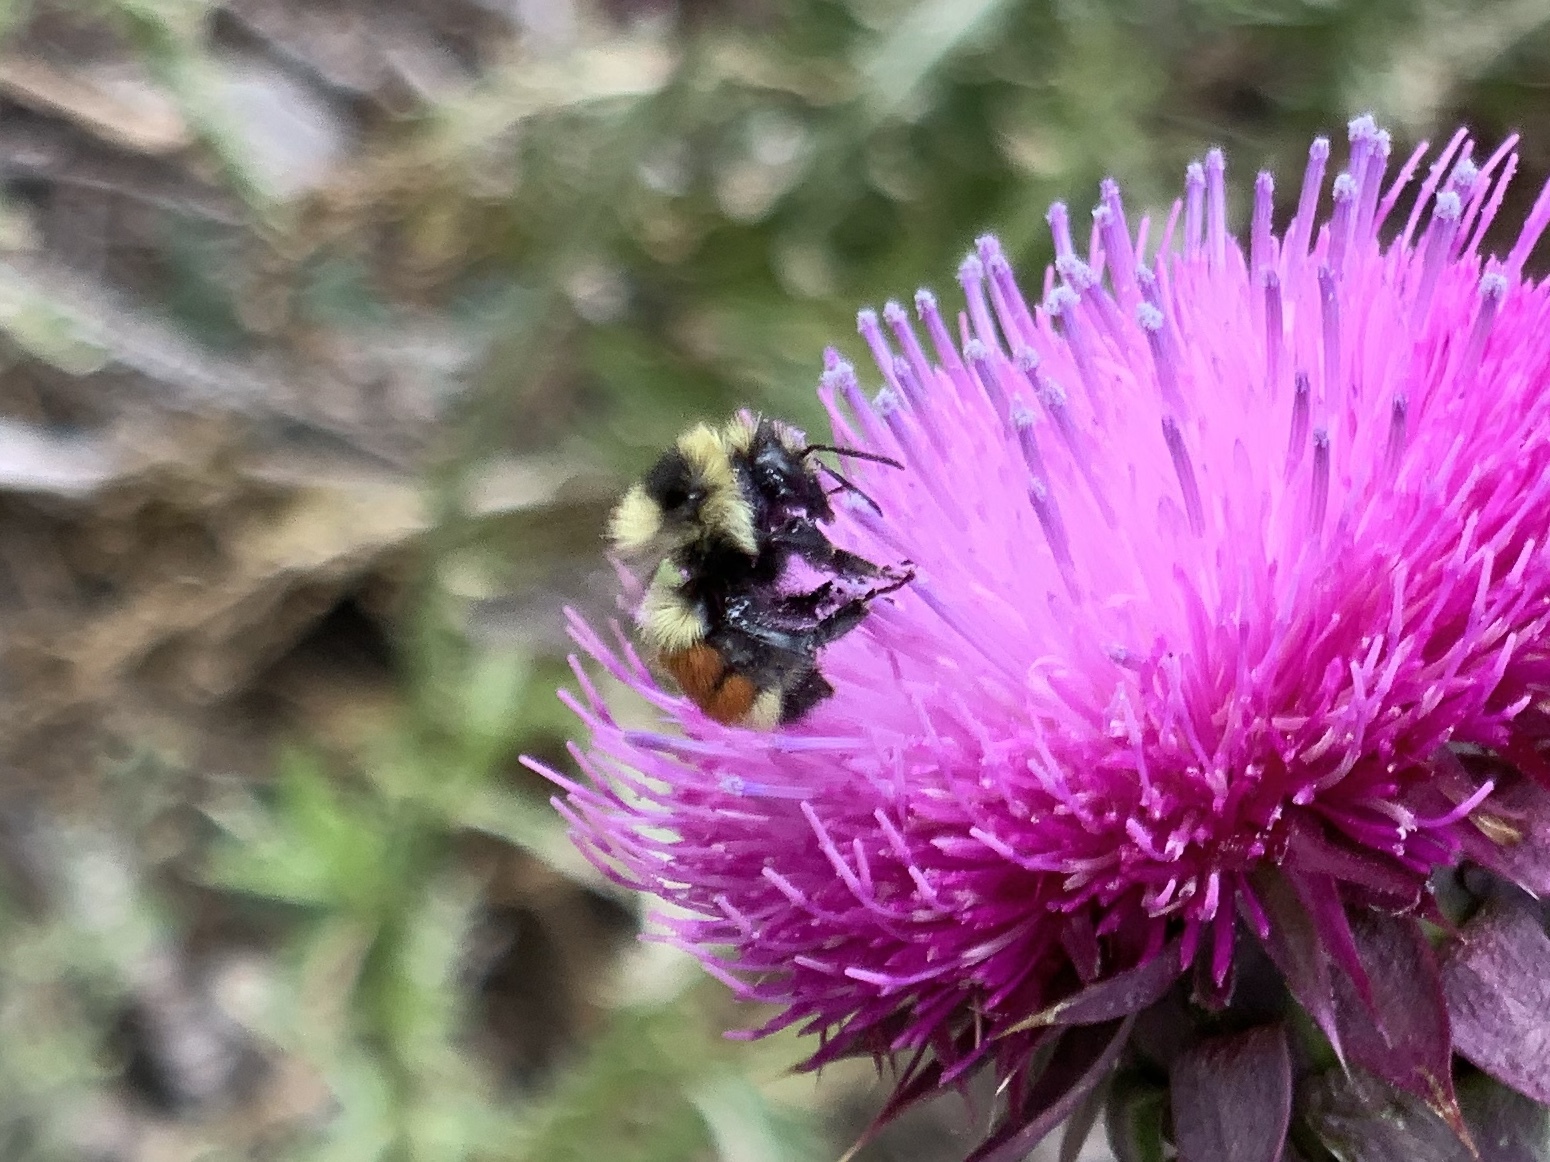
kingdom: Animalia
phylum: Arthropoda
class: Insecta
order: Hymenoptera
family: Apidae
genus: Bombus
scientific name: Bombus huntii
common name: Hunt bumble bee
